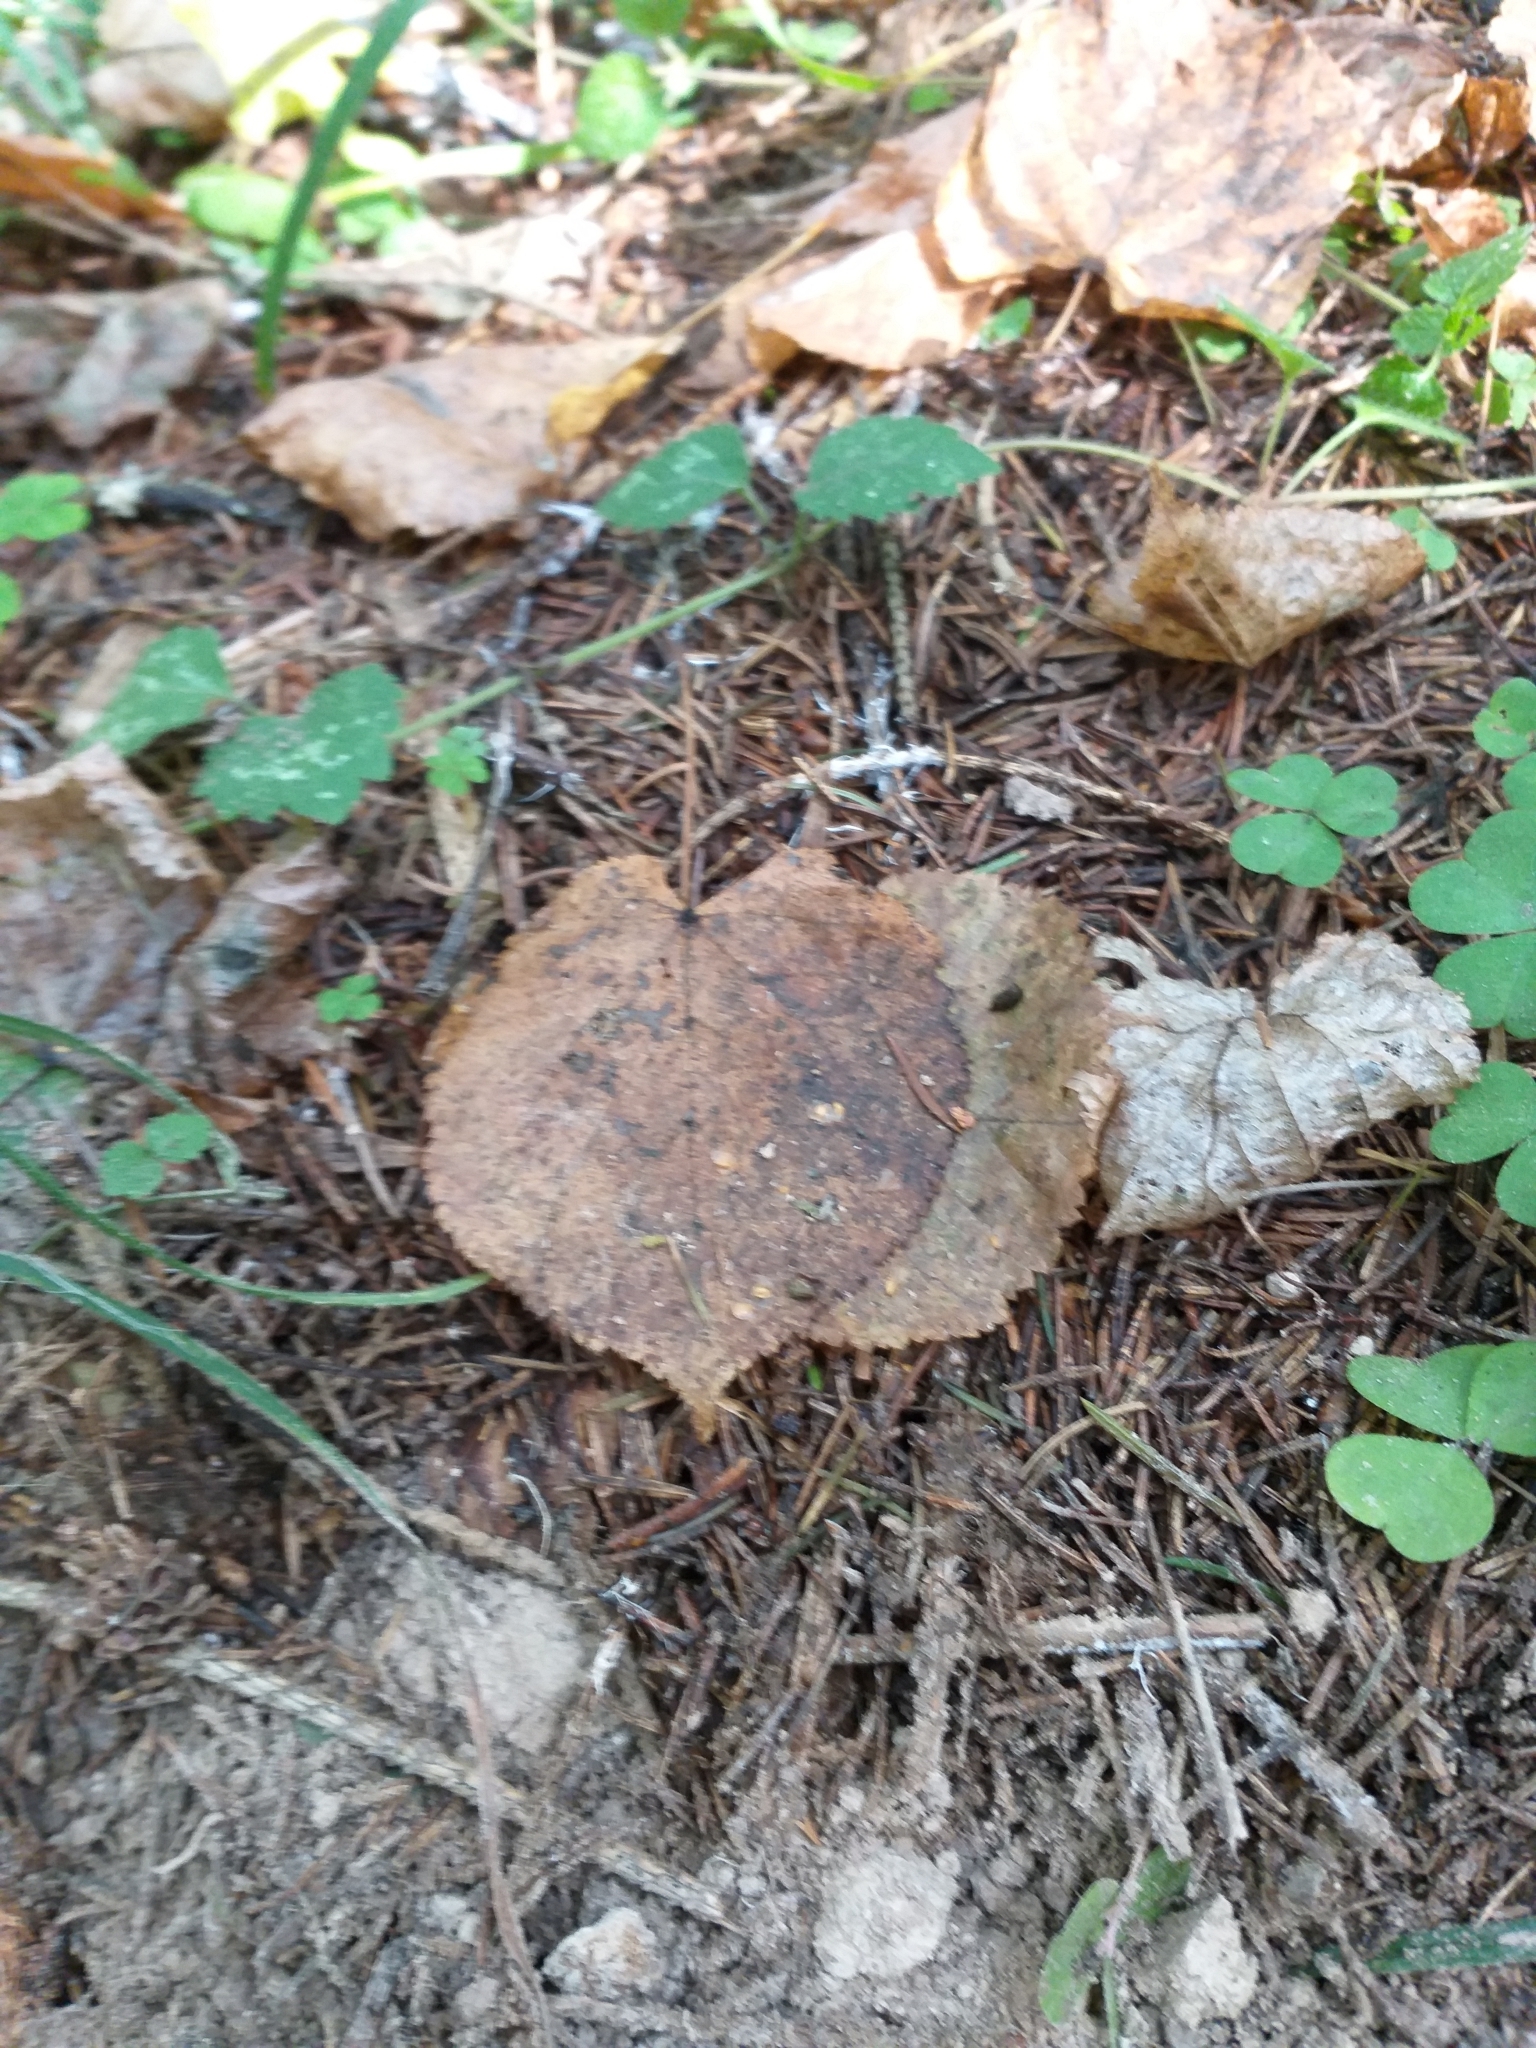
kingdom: Plantae
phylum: Tracheophyta
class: Magnoliopsida
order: Malvales
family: Malvaceae
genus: Tilia
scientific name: Tilia cordata
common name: Small-leaved lime
